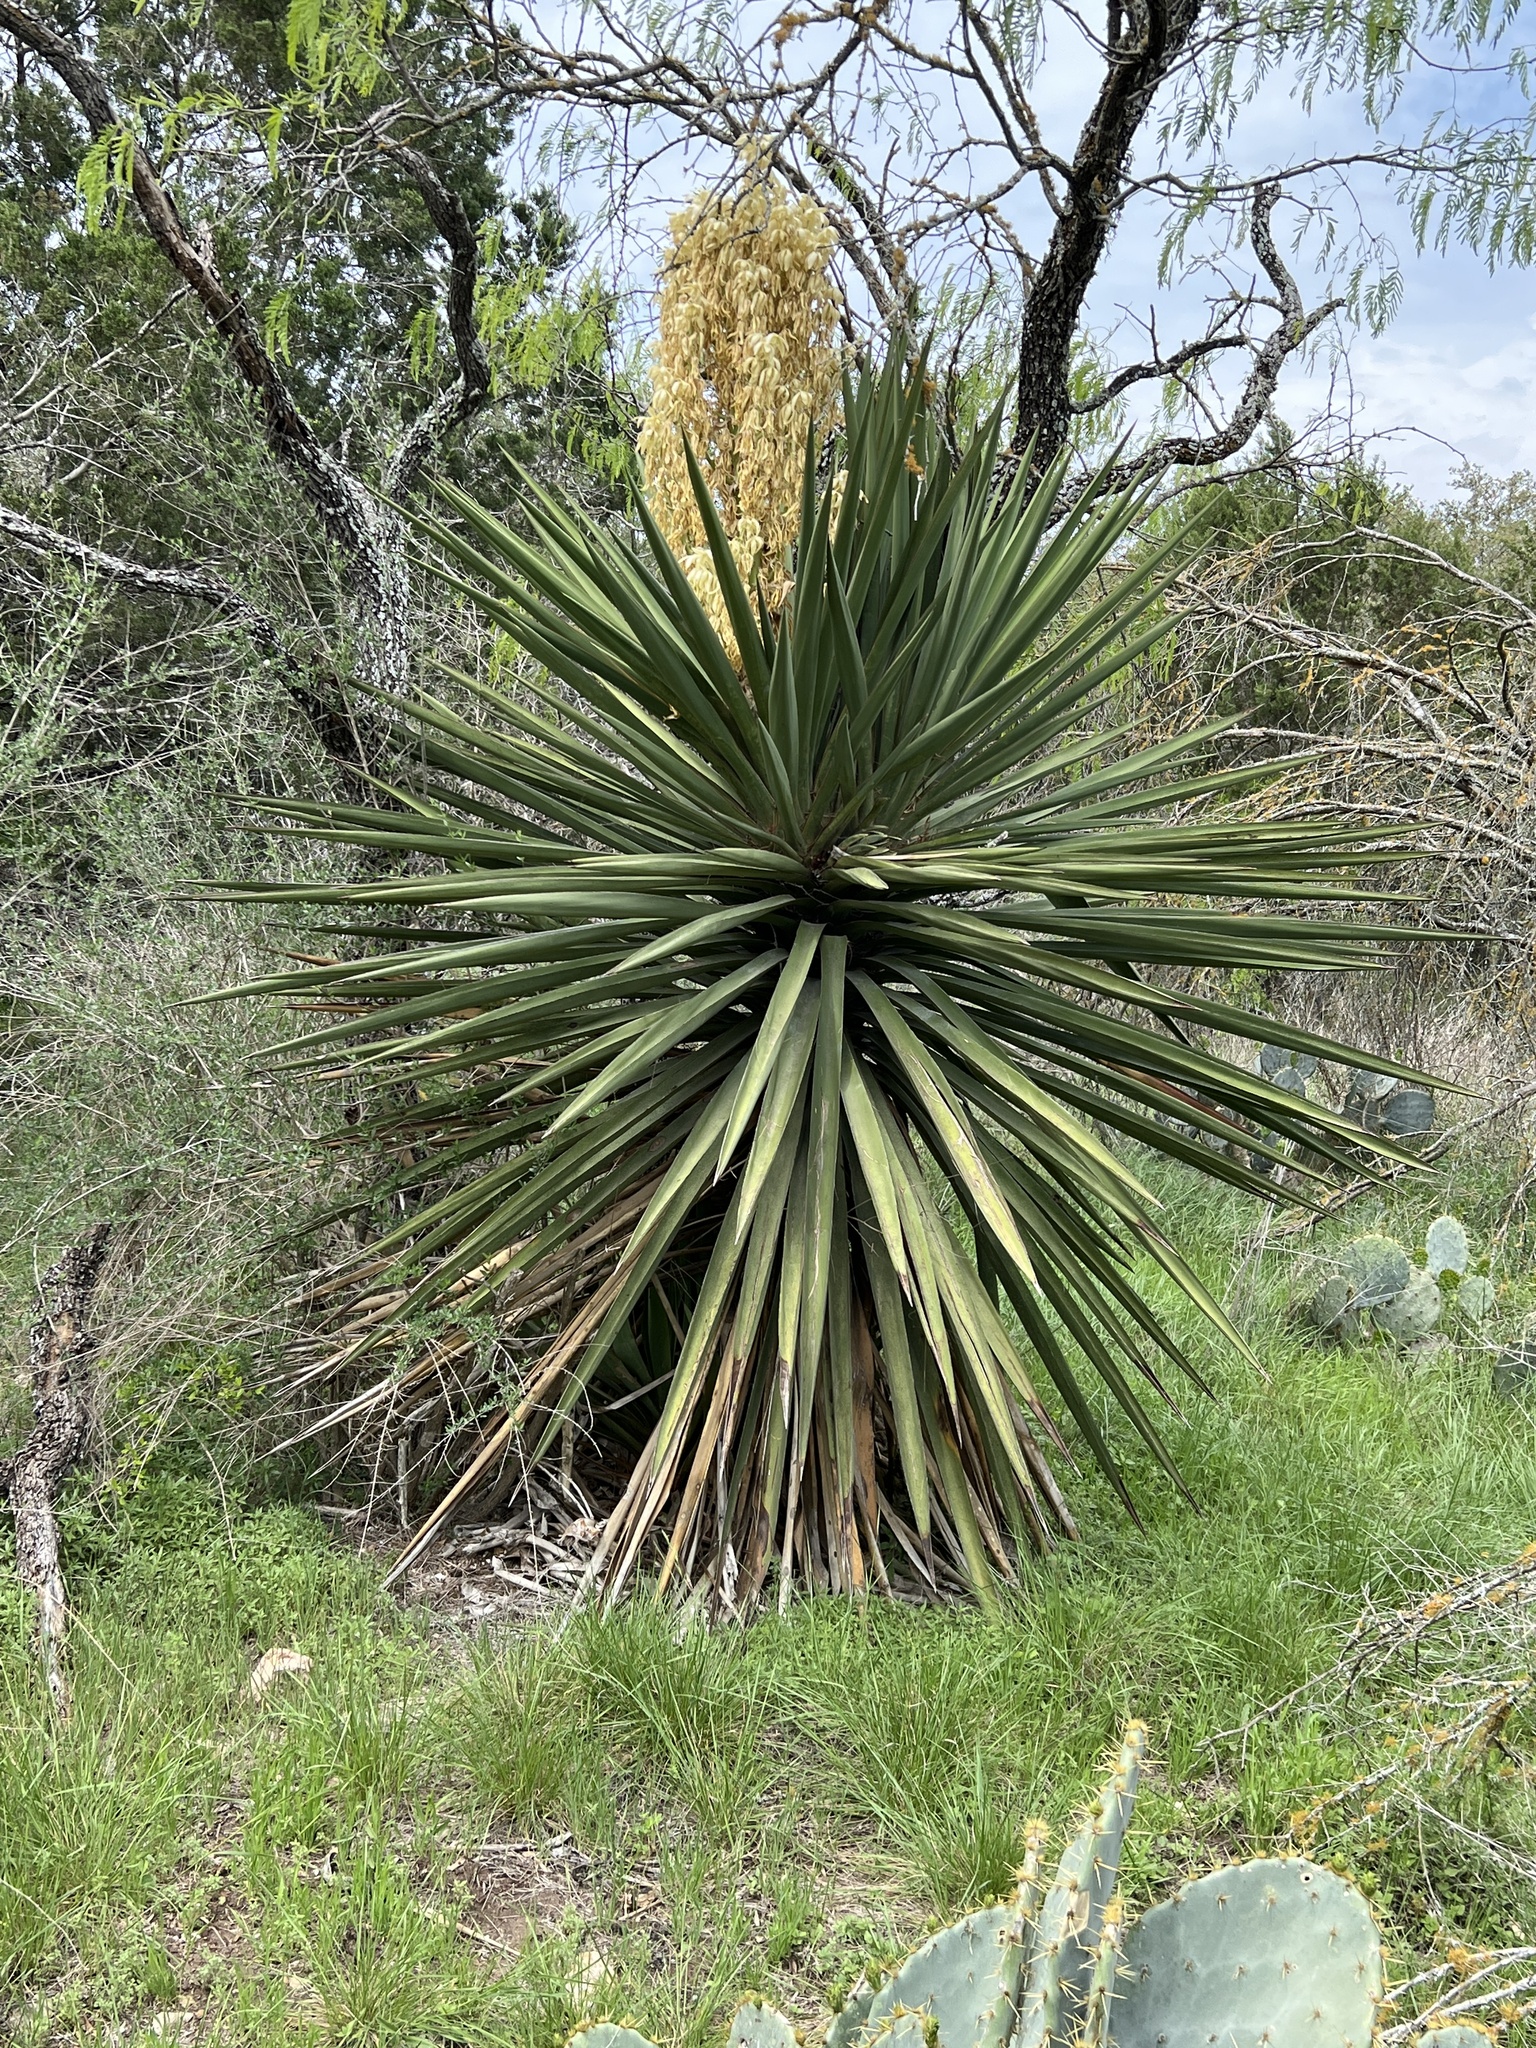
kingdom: Plantae
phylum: Tracheophyta
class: Liliopsida
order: Asparagales
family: Asparagaceae
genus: Yucca
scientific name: Yucca treculiana
